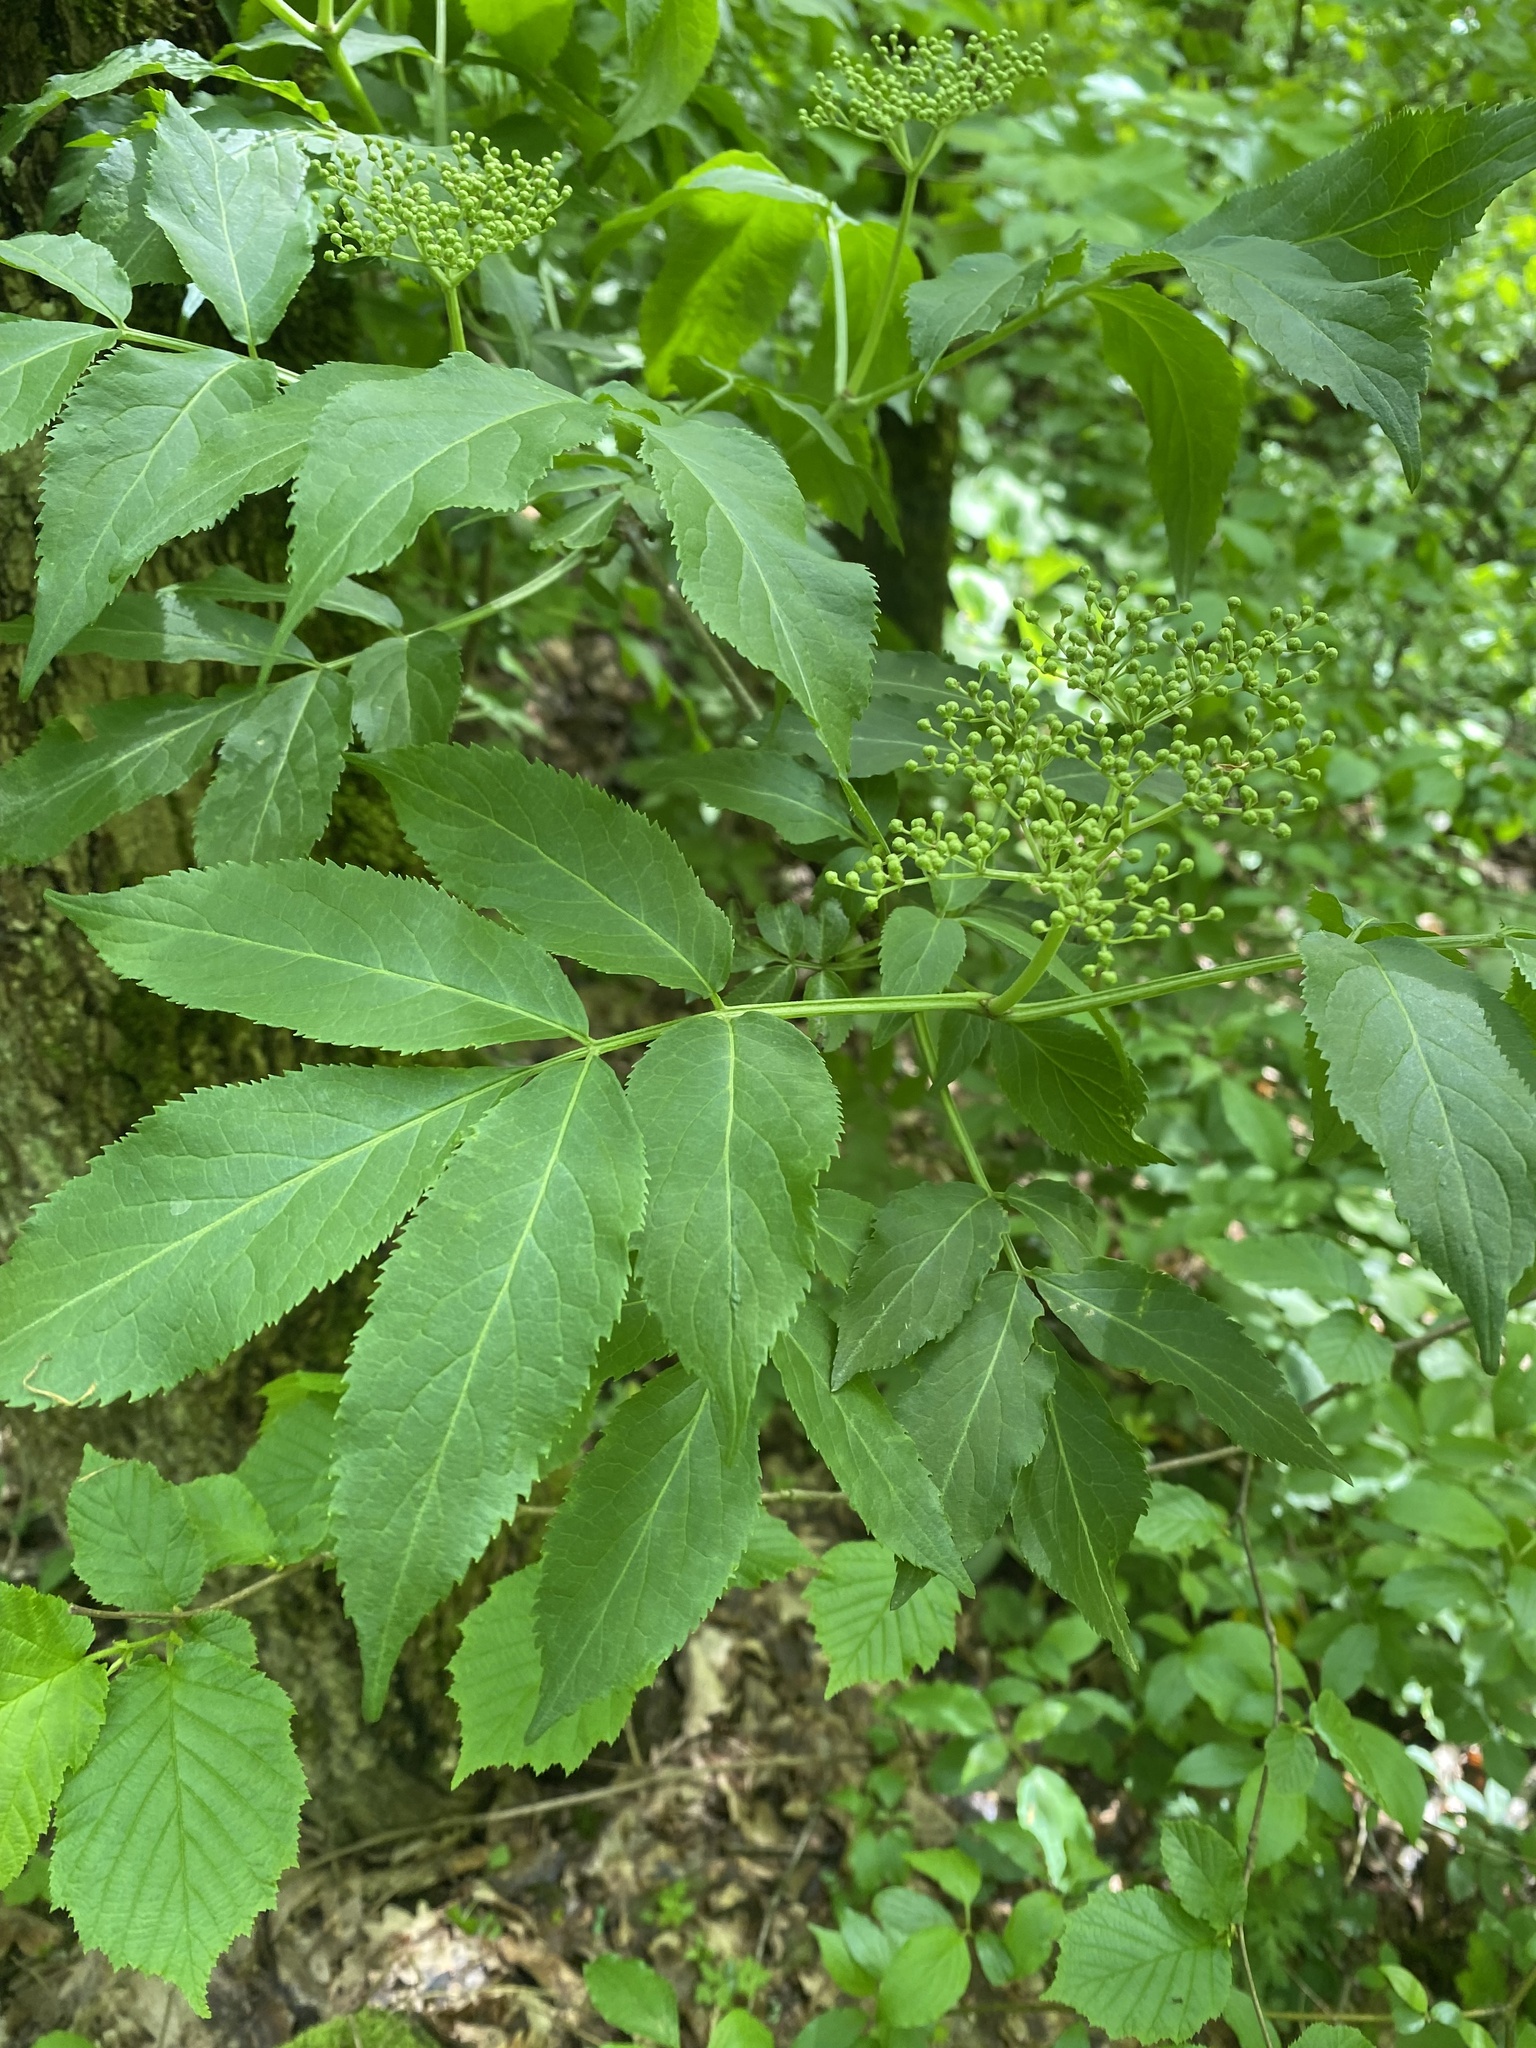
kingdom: Plantae
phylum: Tracheophyta
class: Magnoliopsida
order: Dipsacales
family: Viburnaceae
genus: Sambucus
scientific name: Sambucus nigra
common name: Elder
